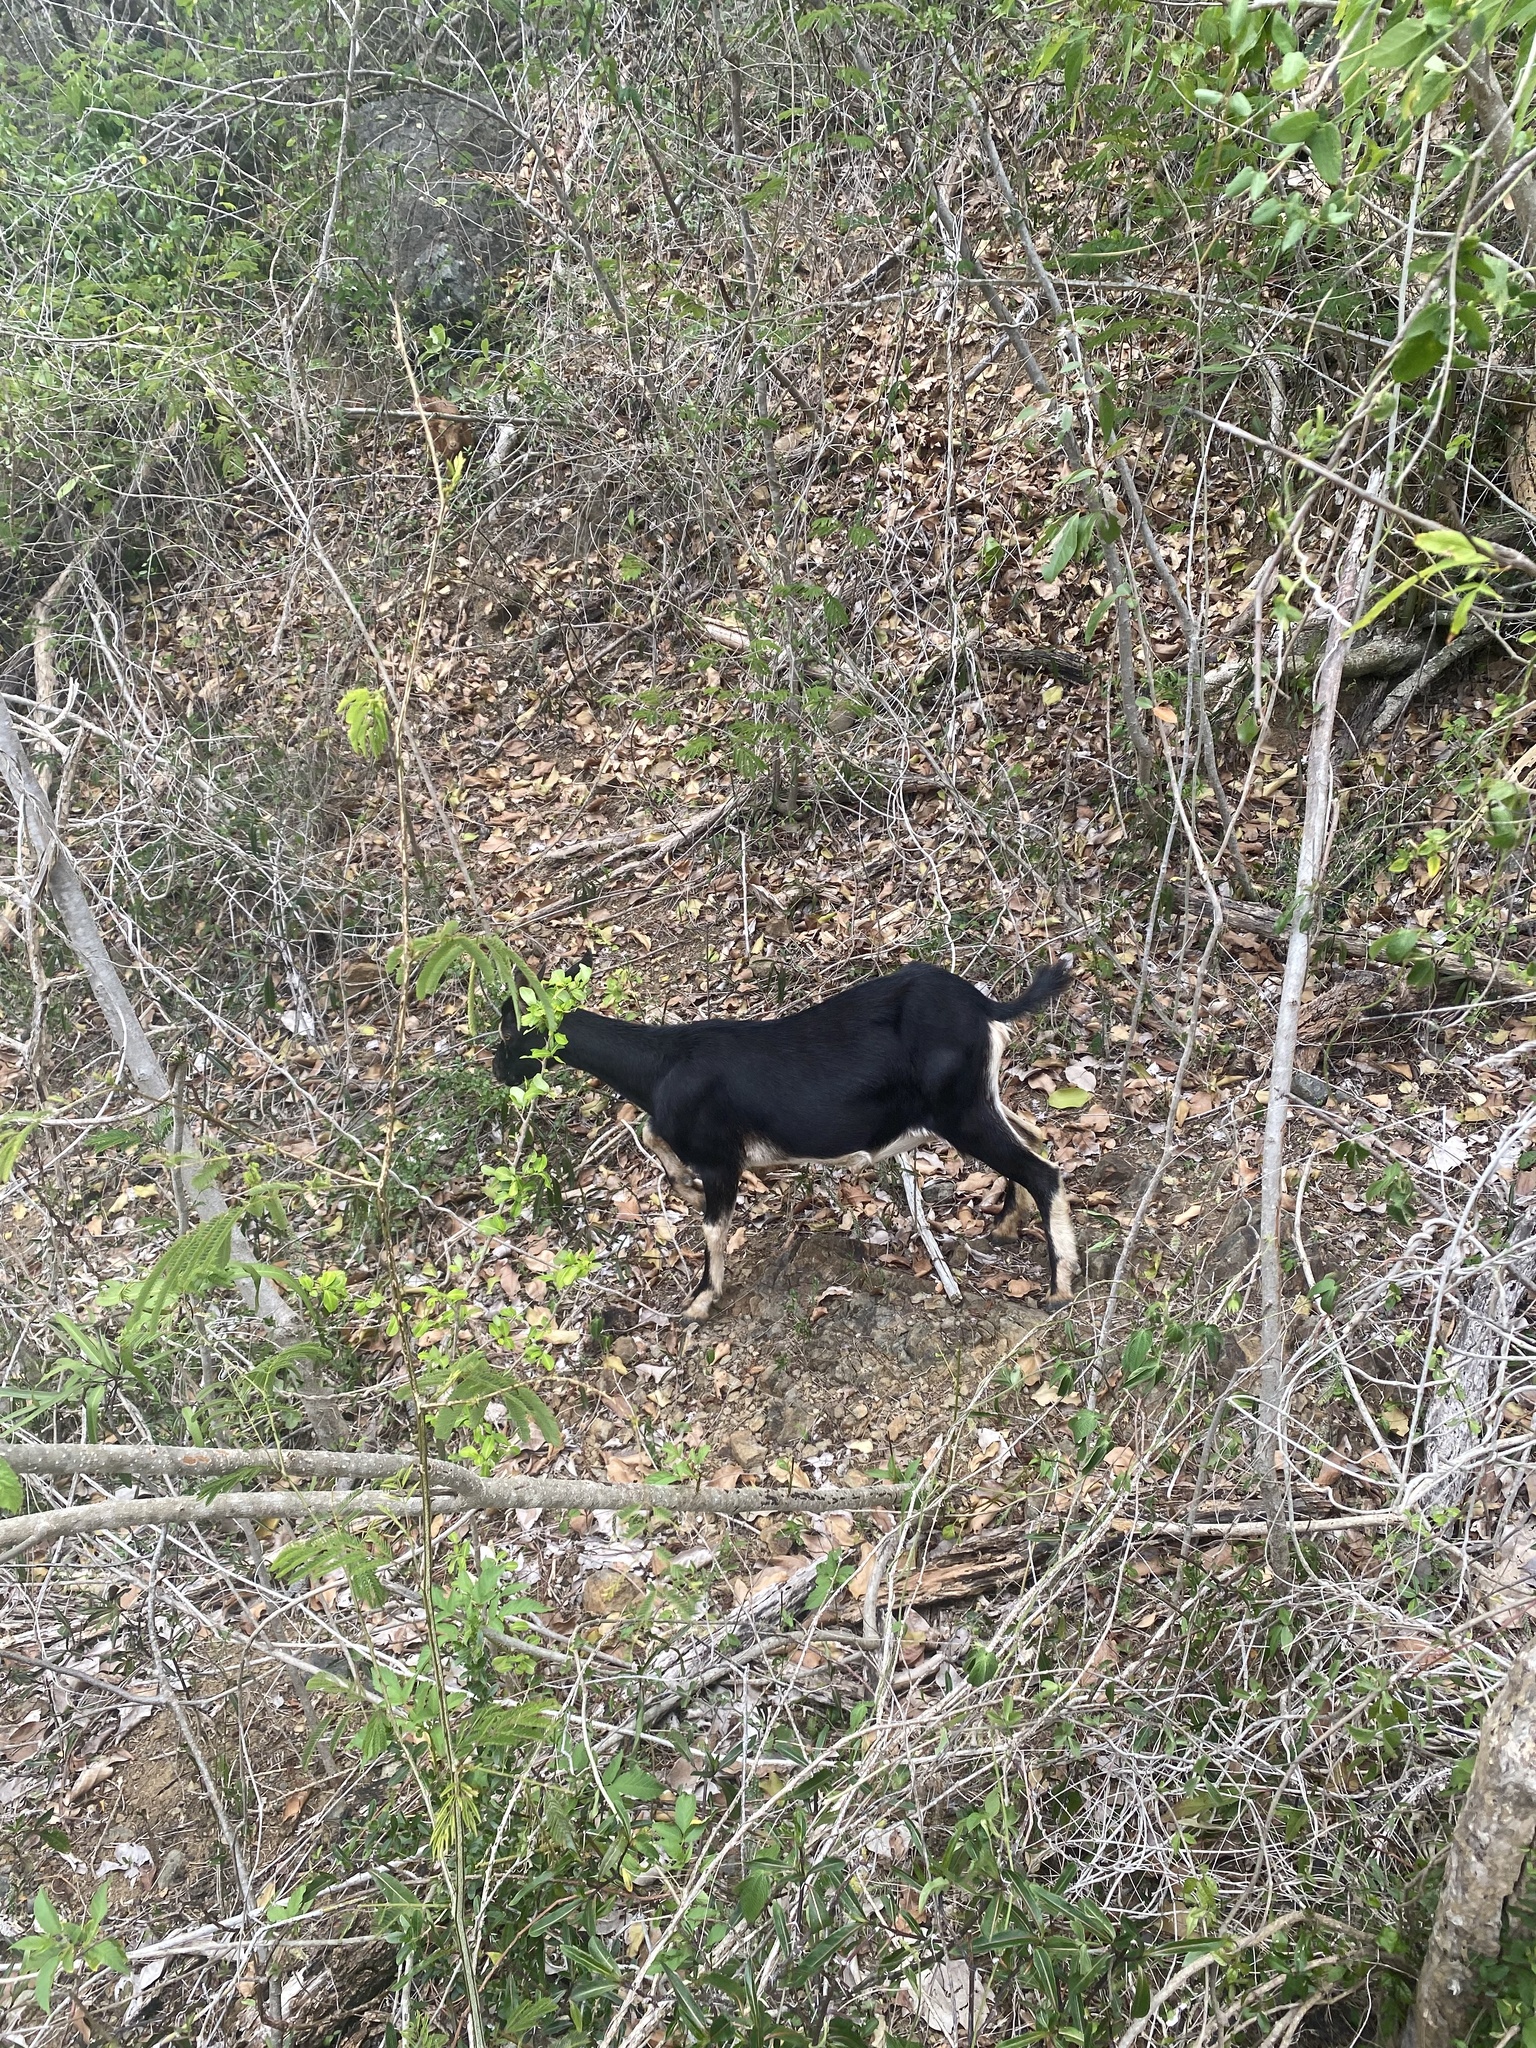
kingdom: Animalia
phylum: Chordata
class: Mammalia
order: Artiodactyla
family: Bovidae
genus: Capra
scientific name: Capra hircus
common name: Domestic goat
